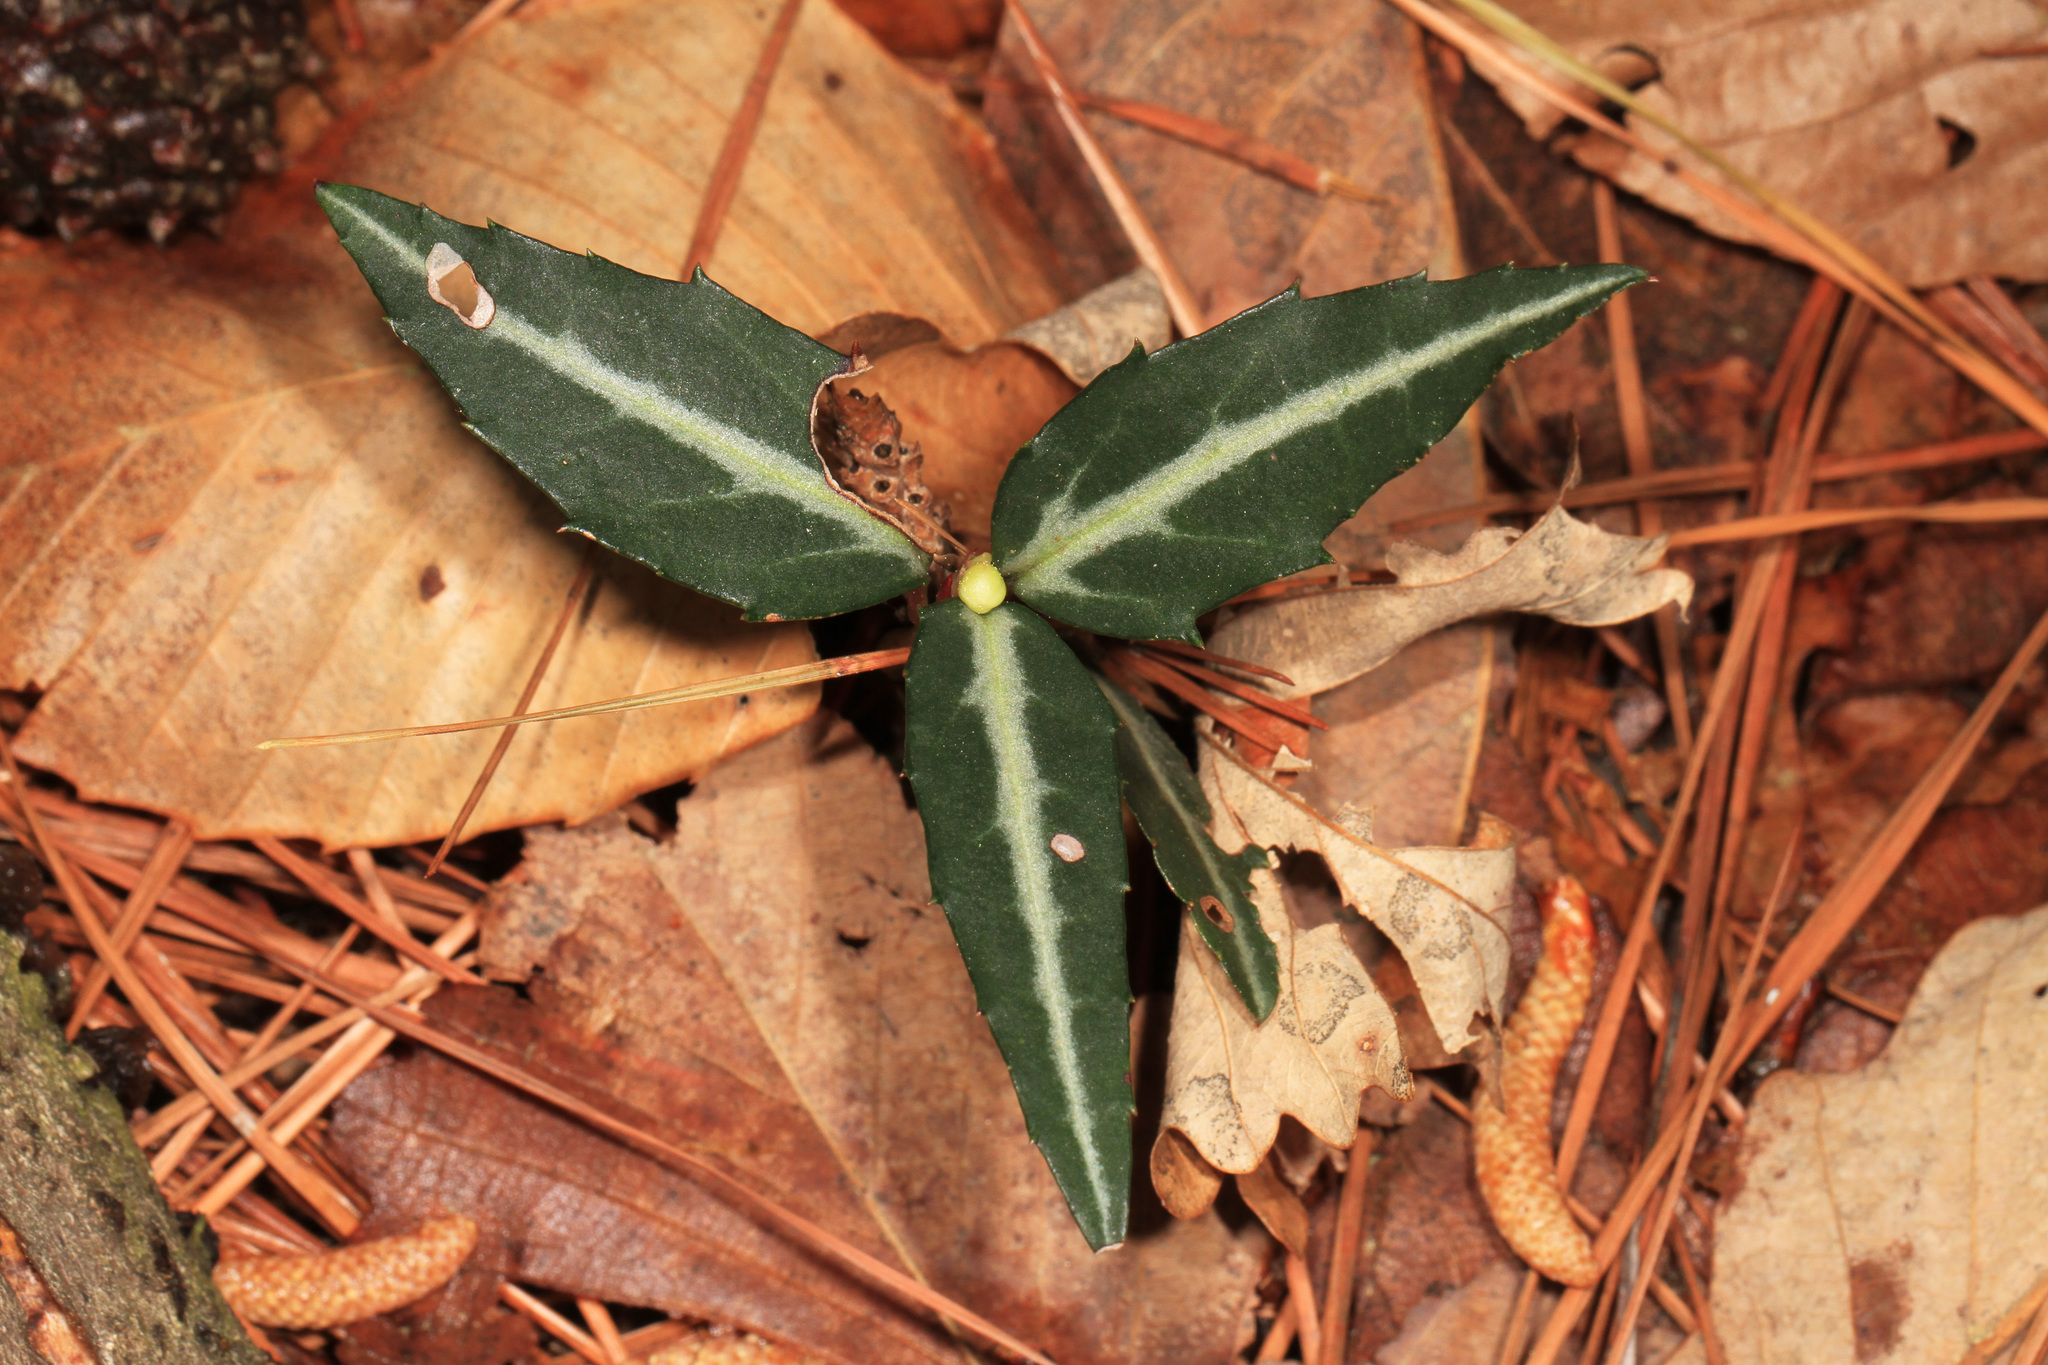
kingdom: Plantae
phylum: Tracheophyta
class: Magnoliopsida
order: Ericales
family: Ericaceae
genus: Chimaphila
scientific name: Chimaphila maculata
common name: Spotted pipsissewa
